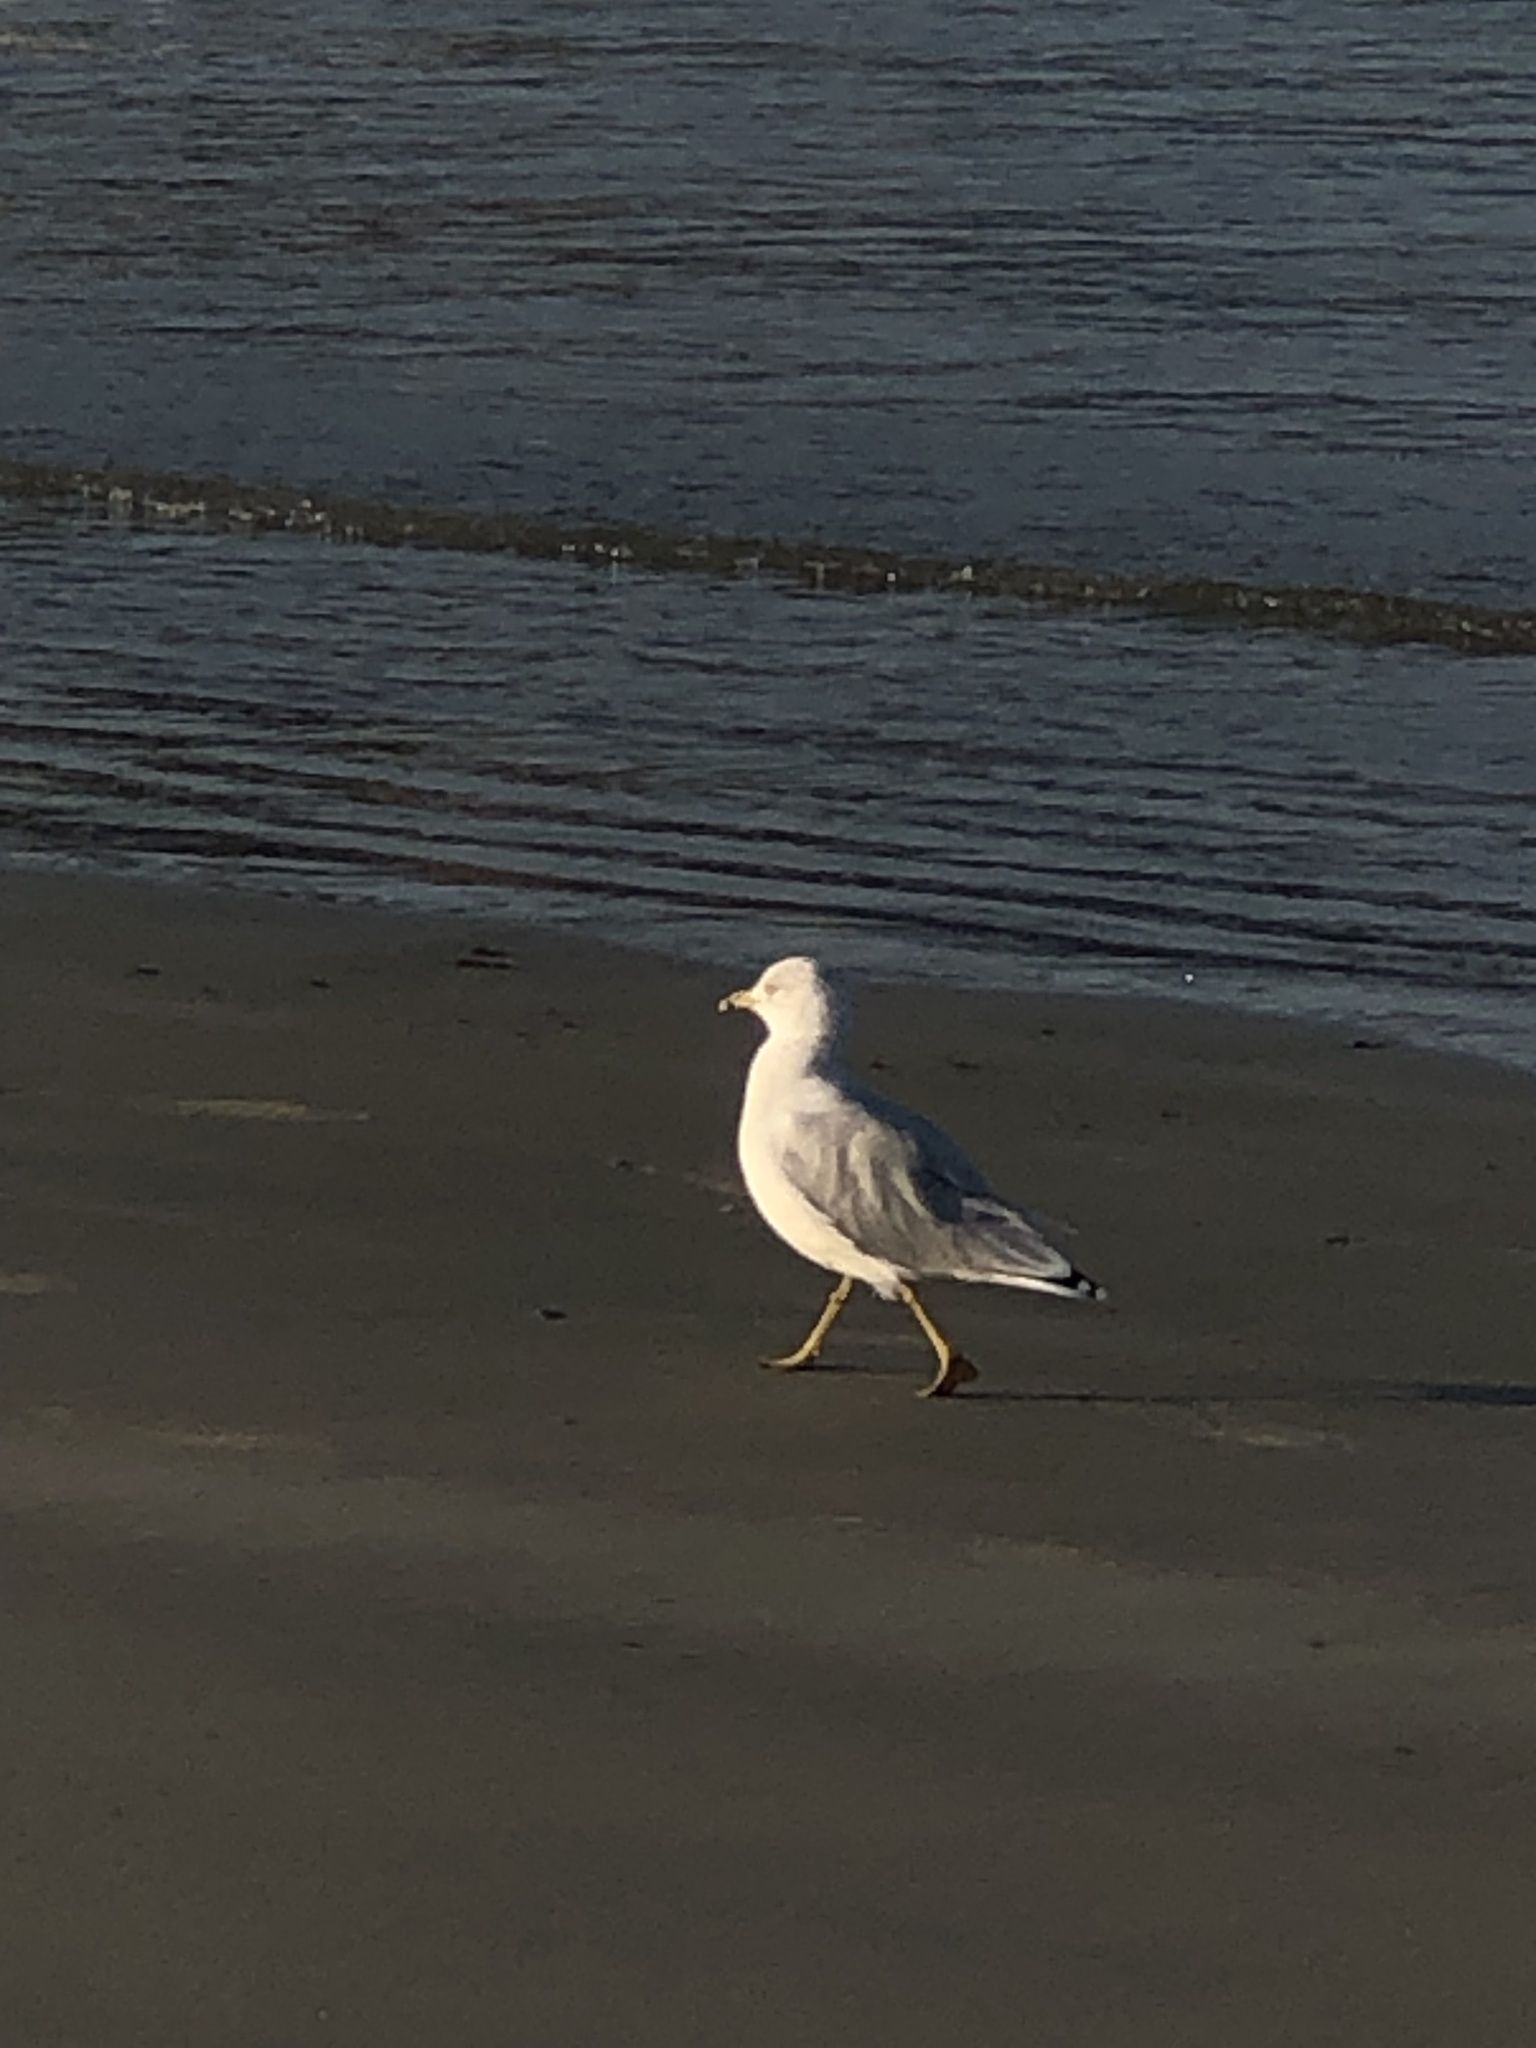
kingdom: Animalia
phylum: Chordata
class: Aves
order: Charadriiformes
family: Laridae
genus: Larus
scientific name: Larus delawarensis
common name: Ring-billed gull
